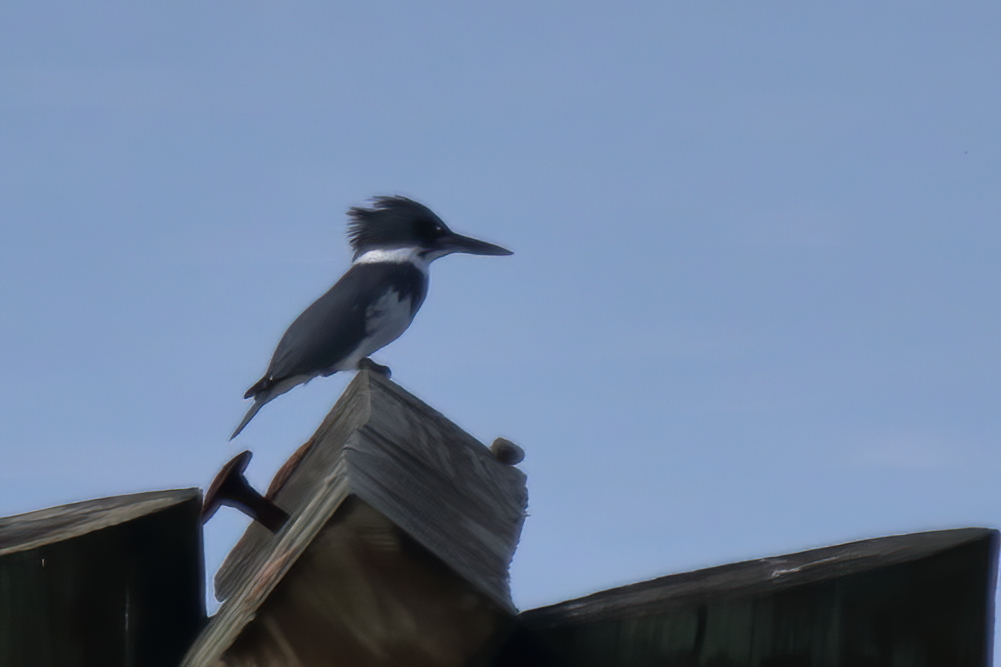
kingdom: Animalia
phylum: Chordata
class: Aves
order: Coraciiformes
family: Alcedinidae
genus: Megaceryle
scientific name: Megaceryle alcyon
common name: Belted kingfisher
